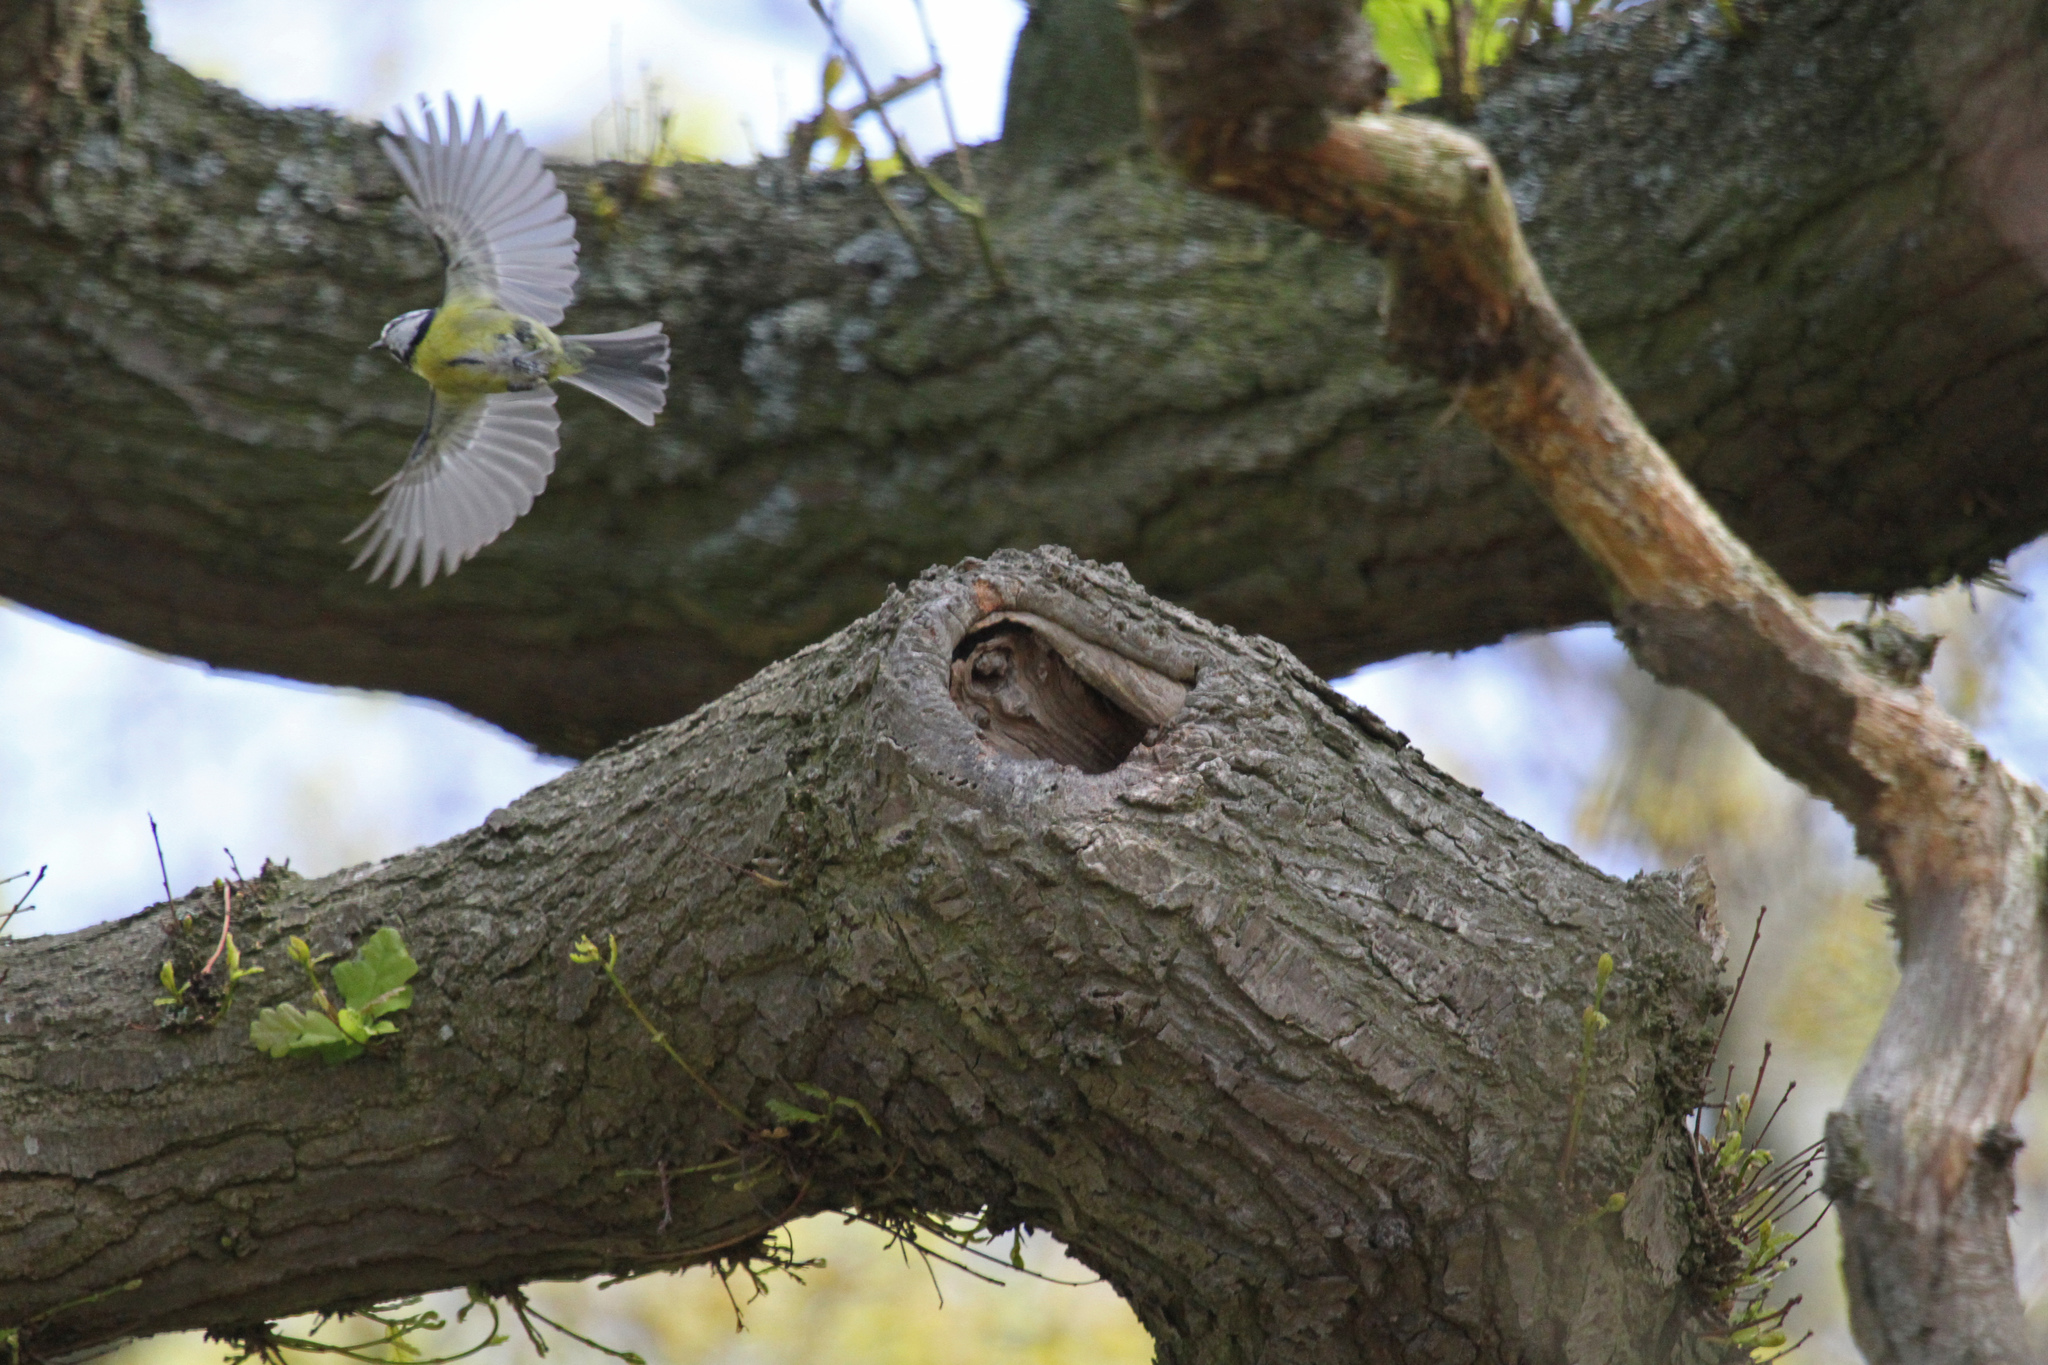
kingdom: Animalia
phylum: Chordata
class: Aves
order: Passeriformes
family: Paridae
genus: Cyanistes
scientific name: Cyanistes caeruleus
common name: Eurasian blue tit
